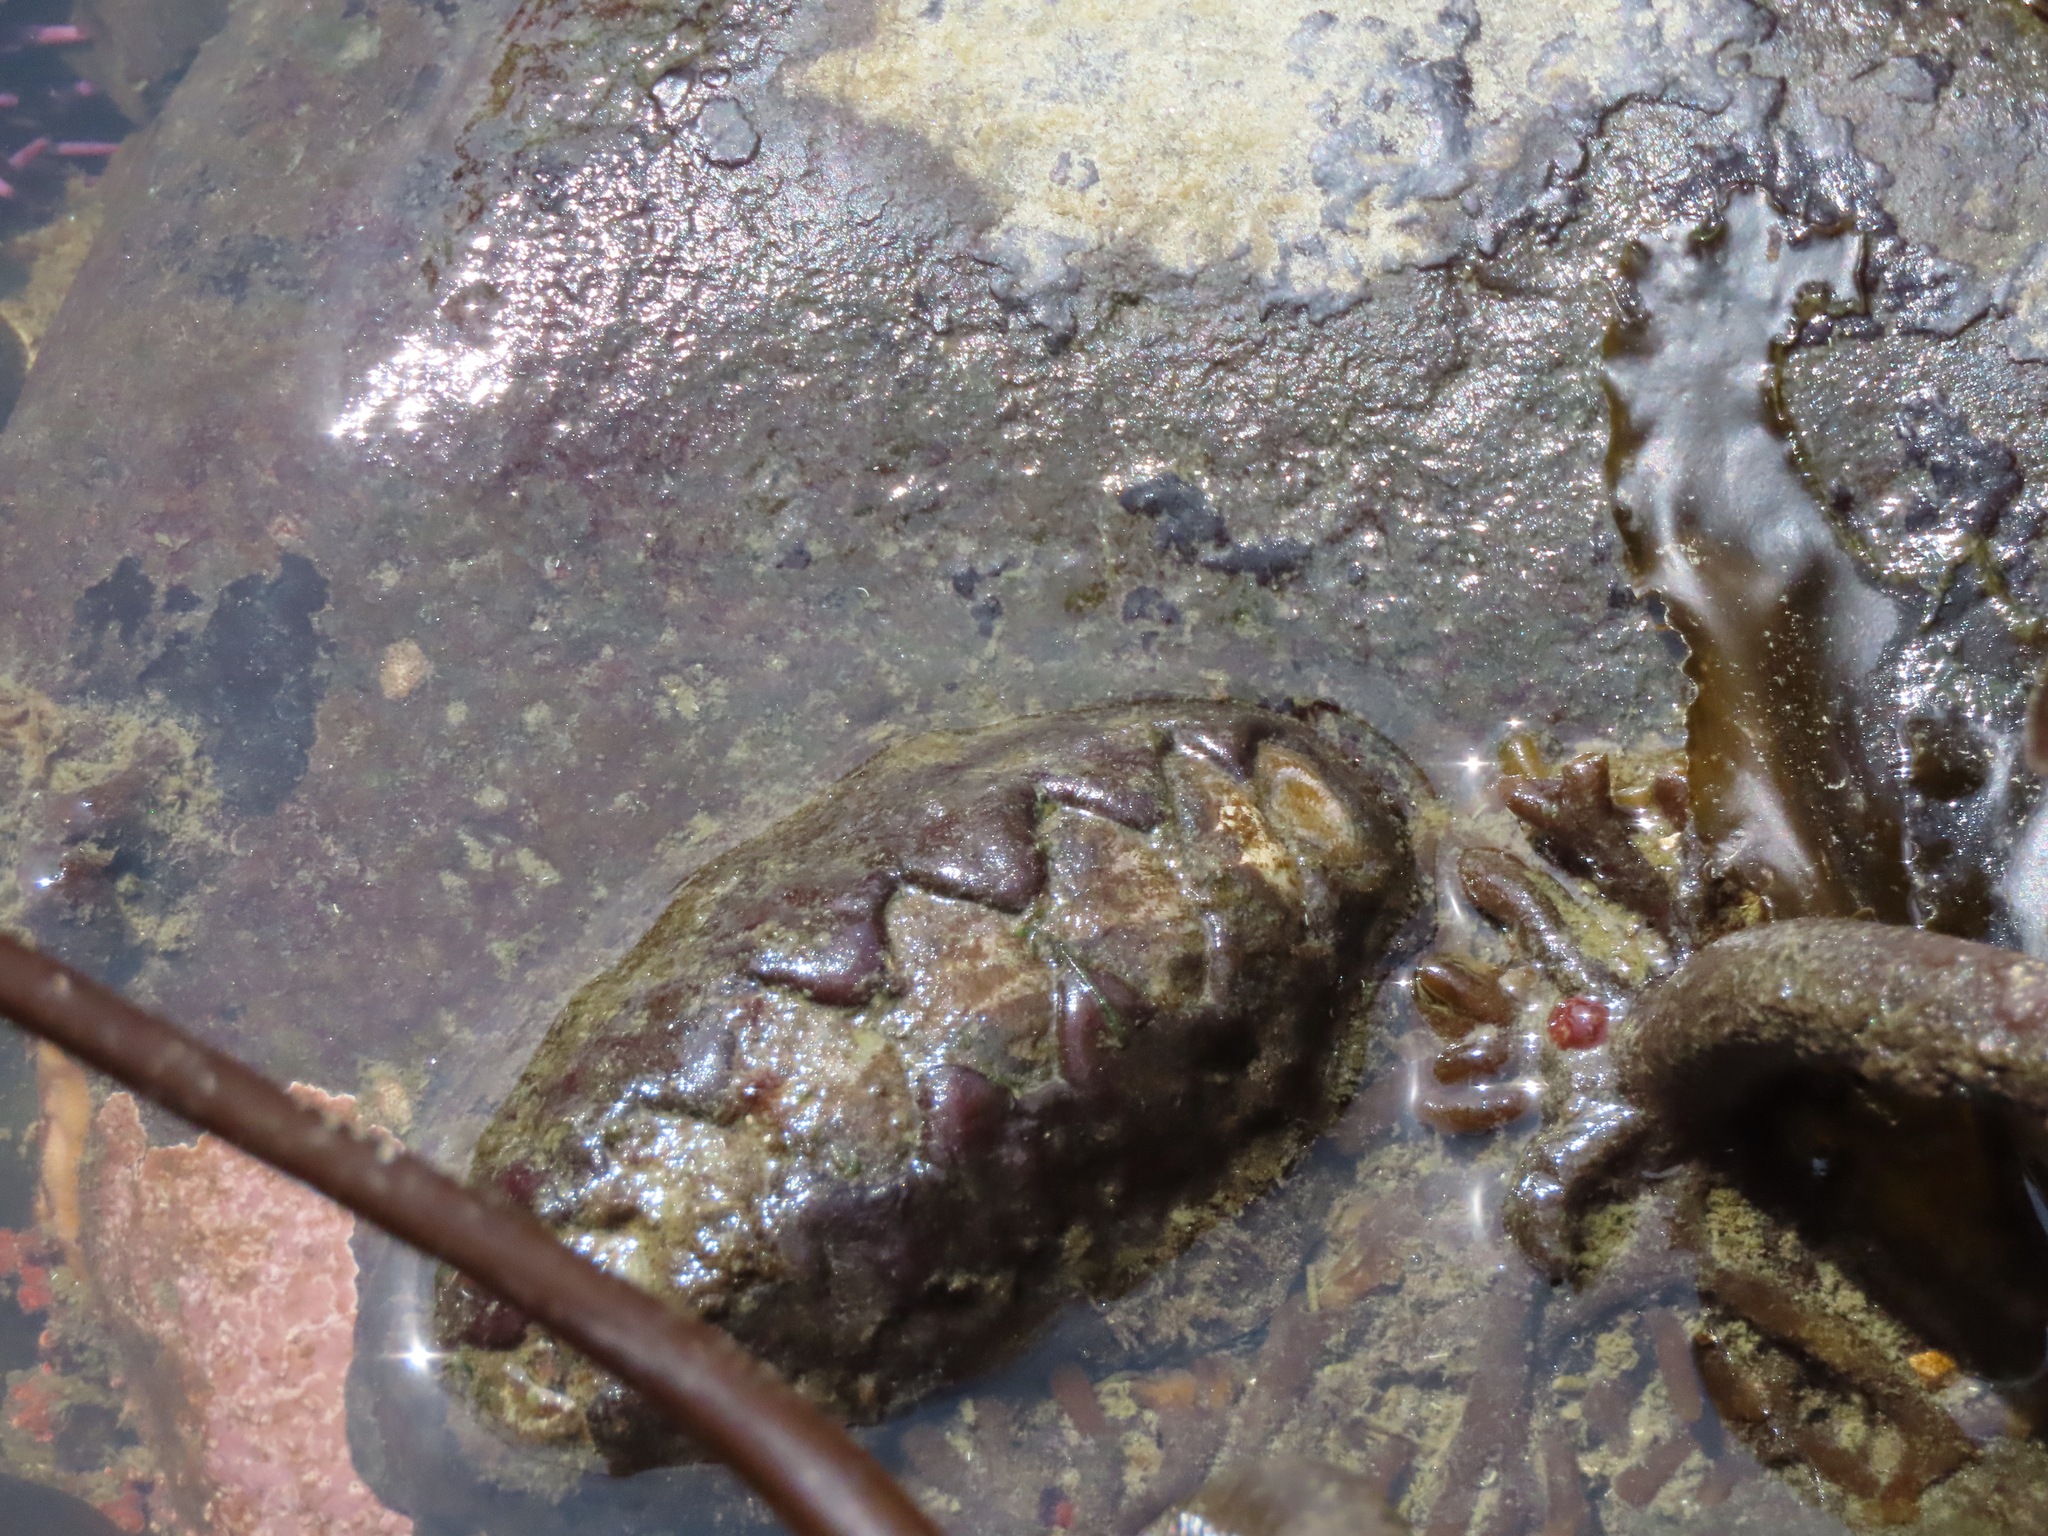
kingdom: Animalia
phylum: Mollusca
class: Polyplacophora
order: Chitonida
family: Mopaliidae
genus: Katharina
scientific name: Katharina tunicata
